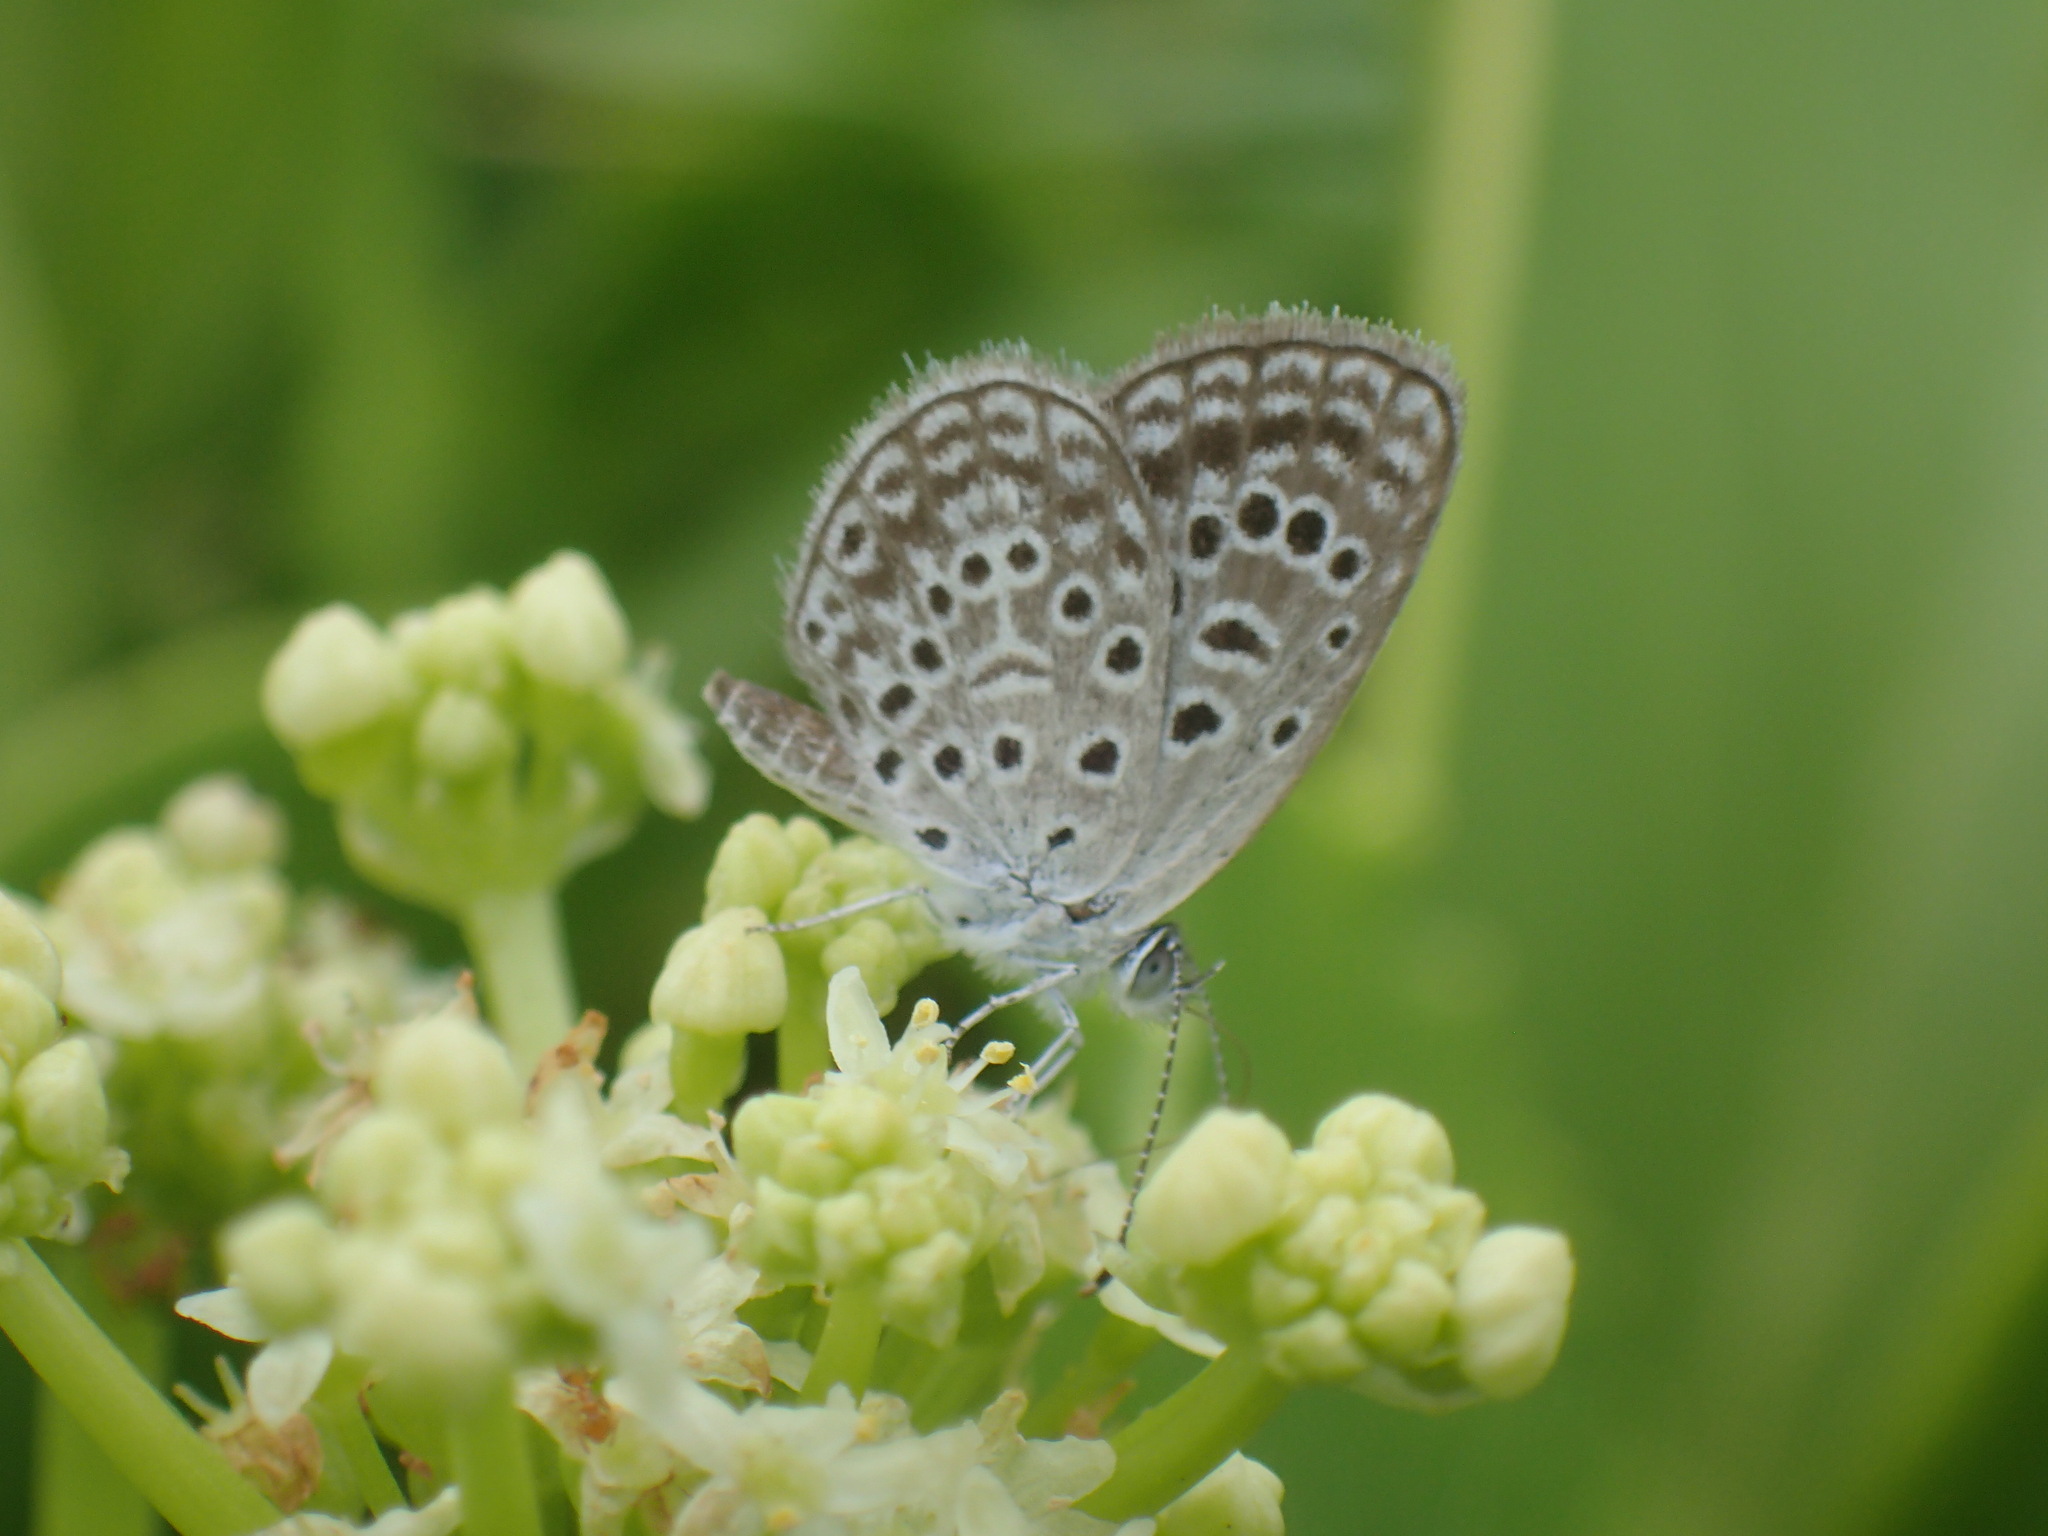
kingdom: Animalia
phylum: Arthropoda
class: Insecta
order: Lepidoptera
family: Lycaenidae
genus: Actizera
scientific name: Actizera lucida
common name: Rayed blue
